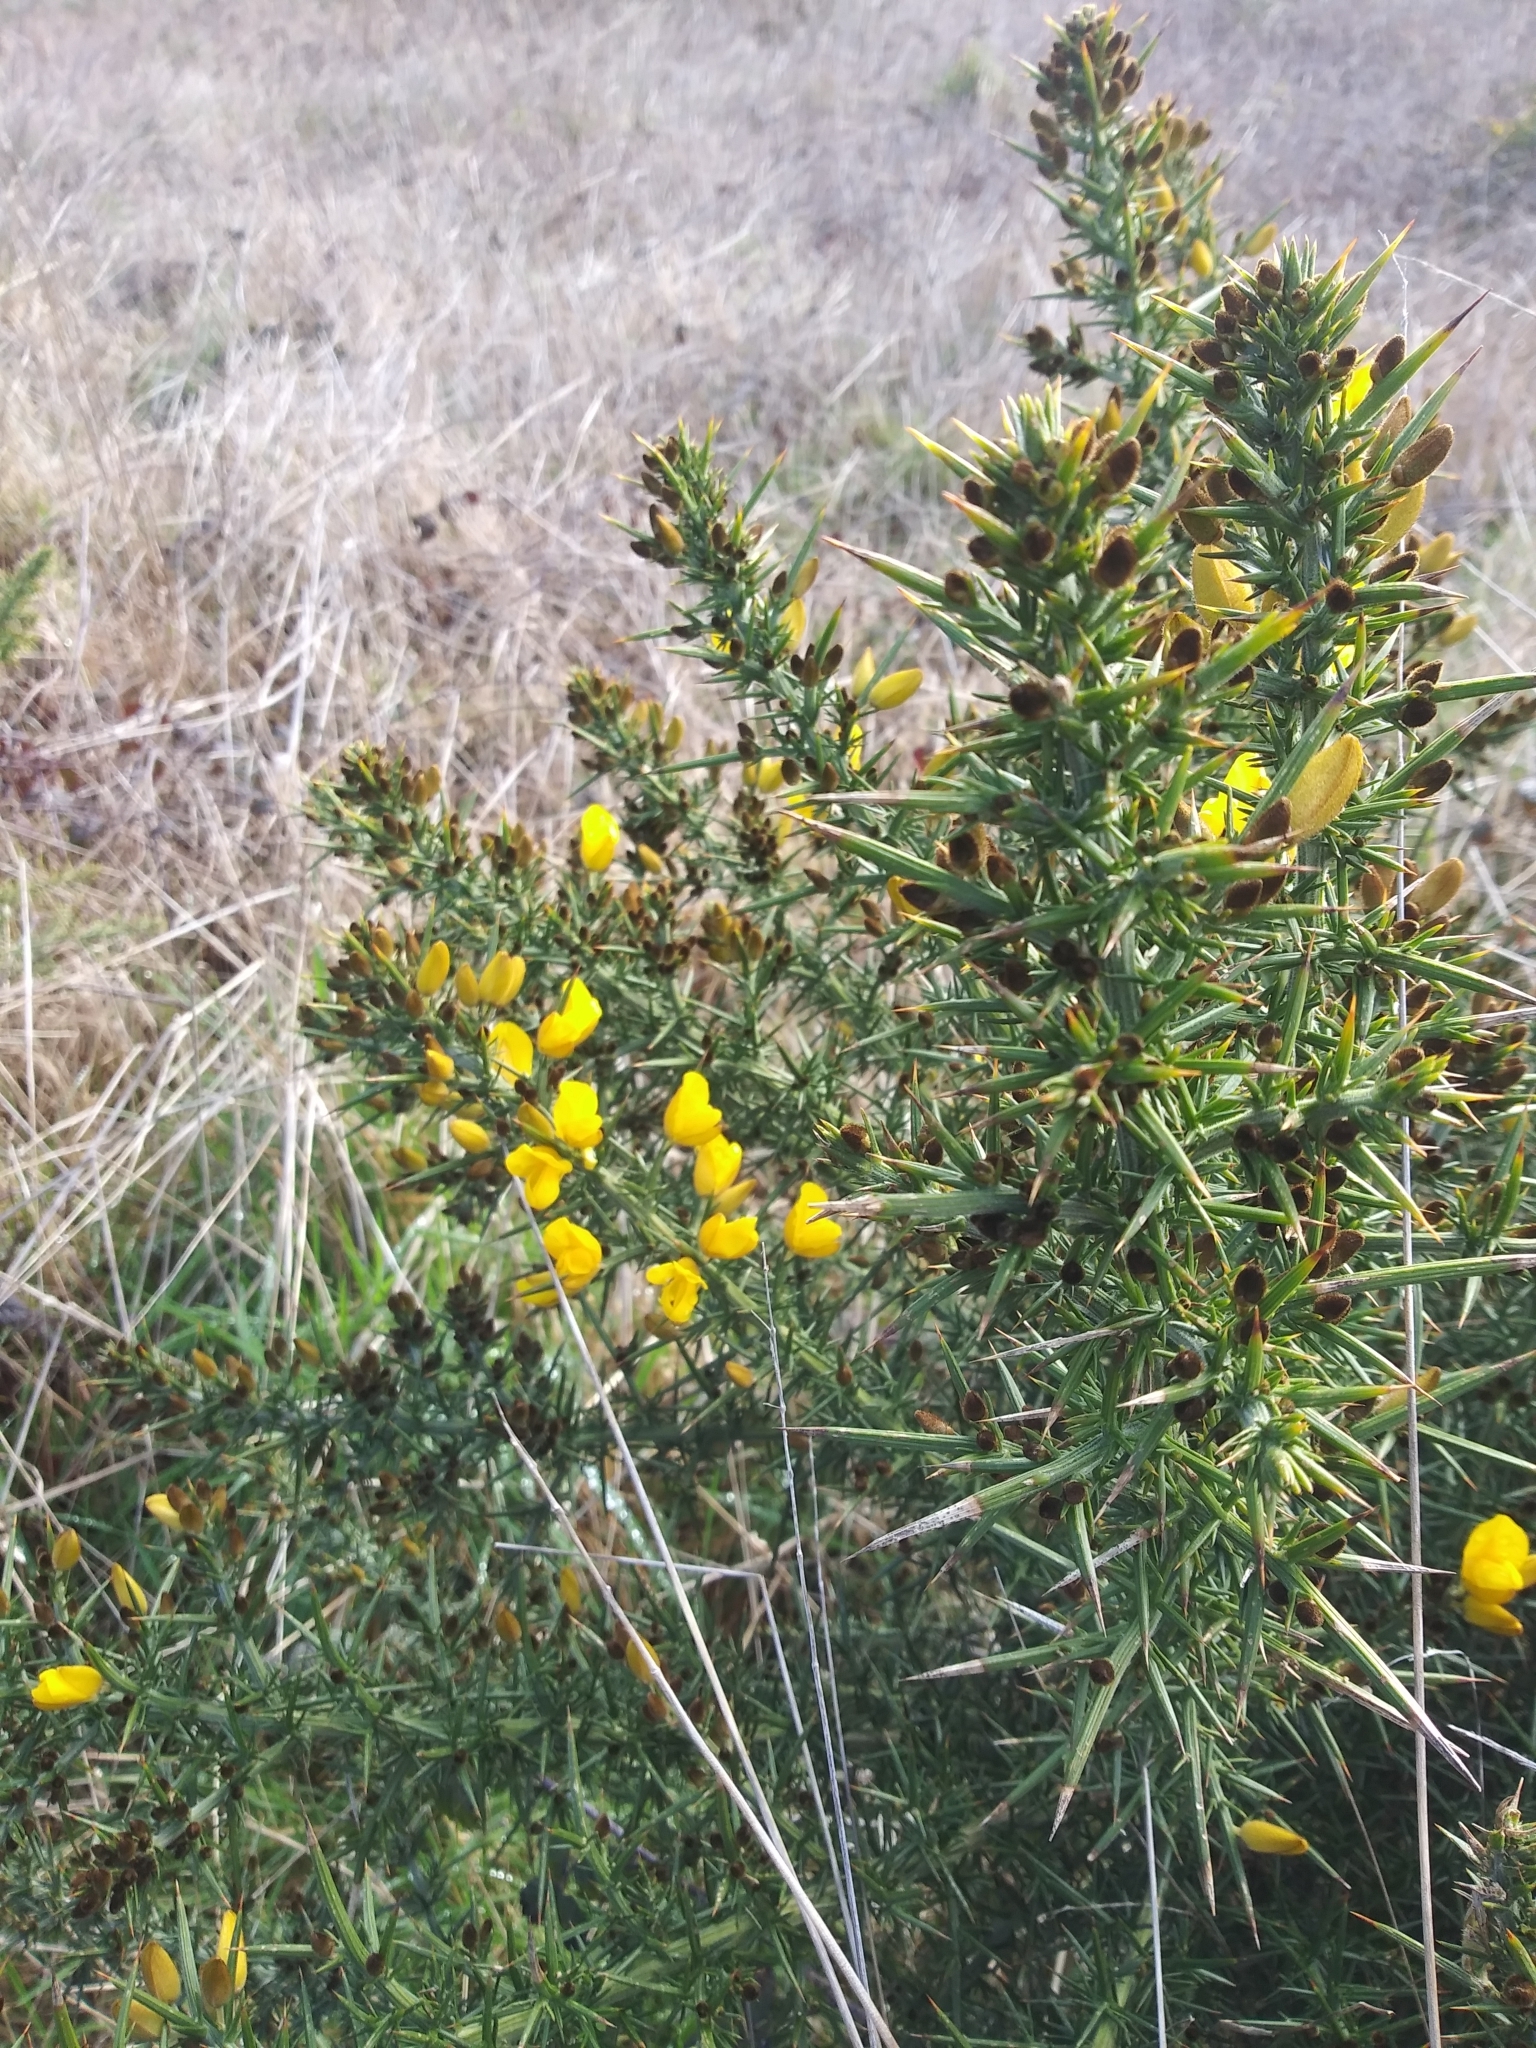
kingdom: Plantae
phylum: Tracheophyta
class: Magnoliopsida
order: Fabales
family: Fabaceae
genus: Ulex
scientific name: Ulex europaeus
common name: Common gorse
